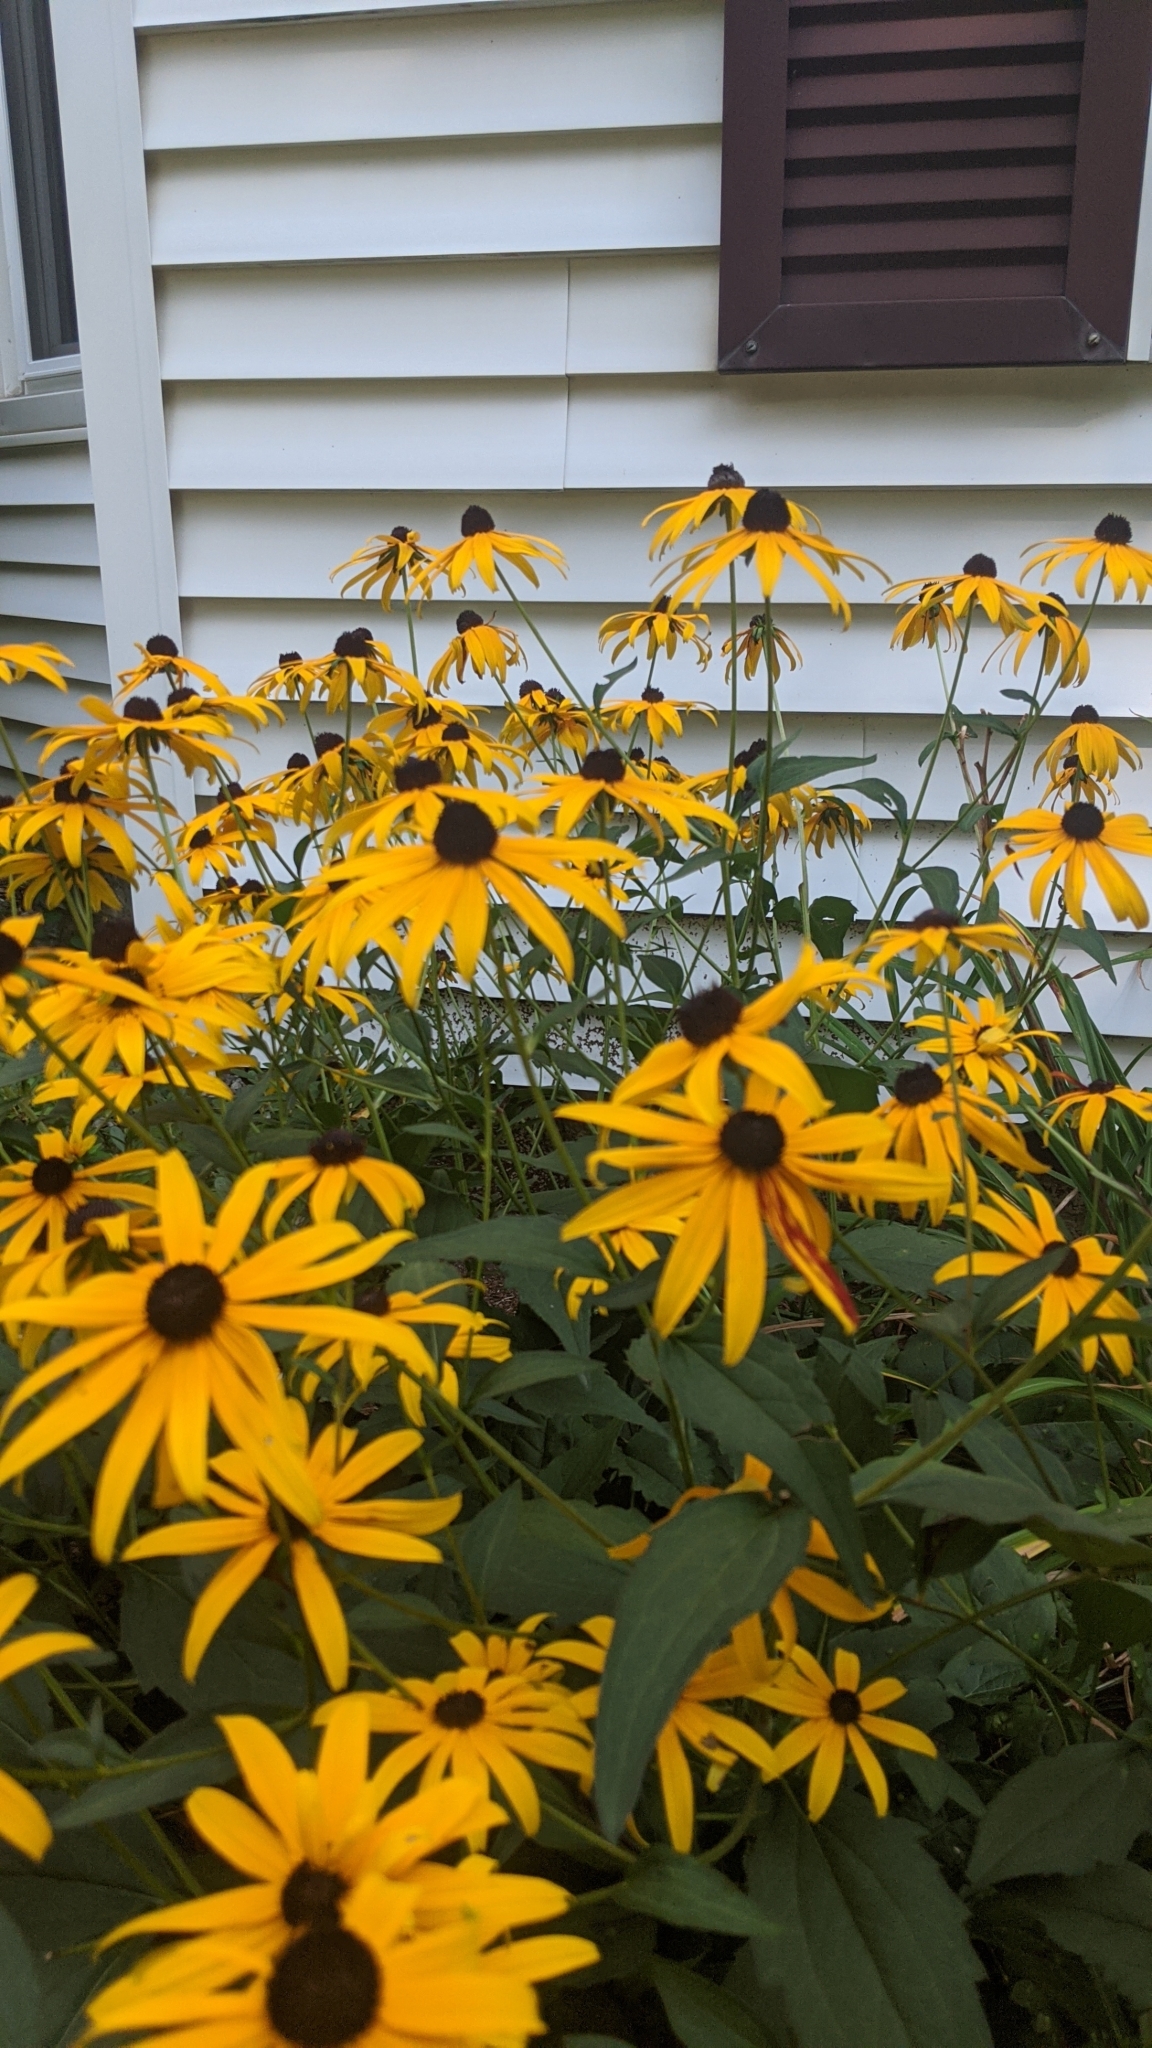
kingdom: Plantae
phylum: Tracheophyta
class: Magnoliopsida
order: Asterales
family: Asteraceae
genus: Rudbeckia
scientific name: Rudbeckia hirta
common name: Black-eyed-susan
